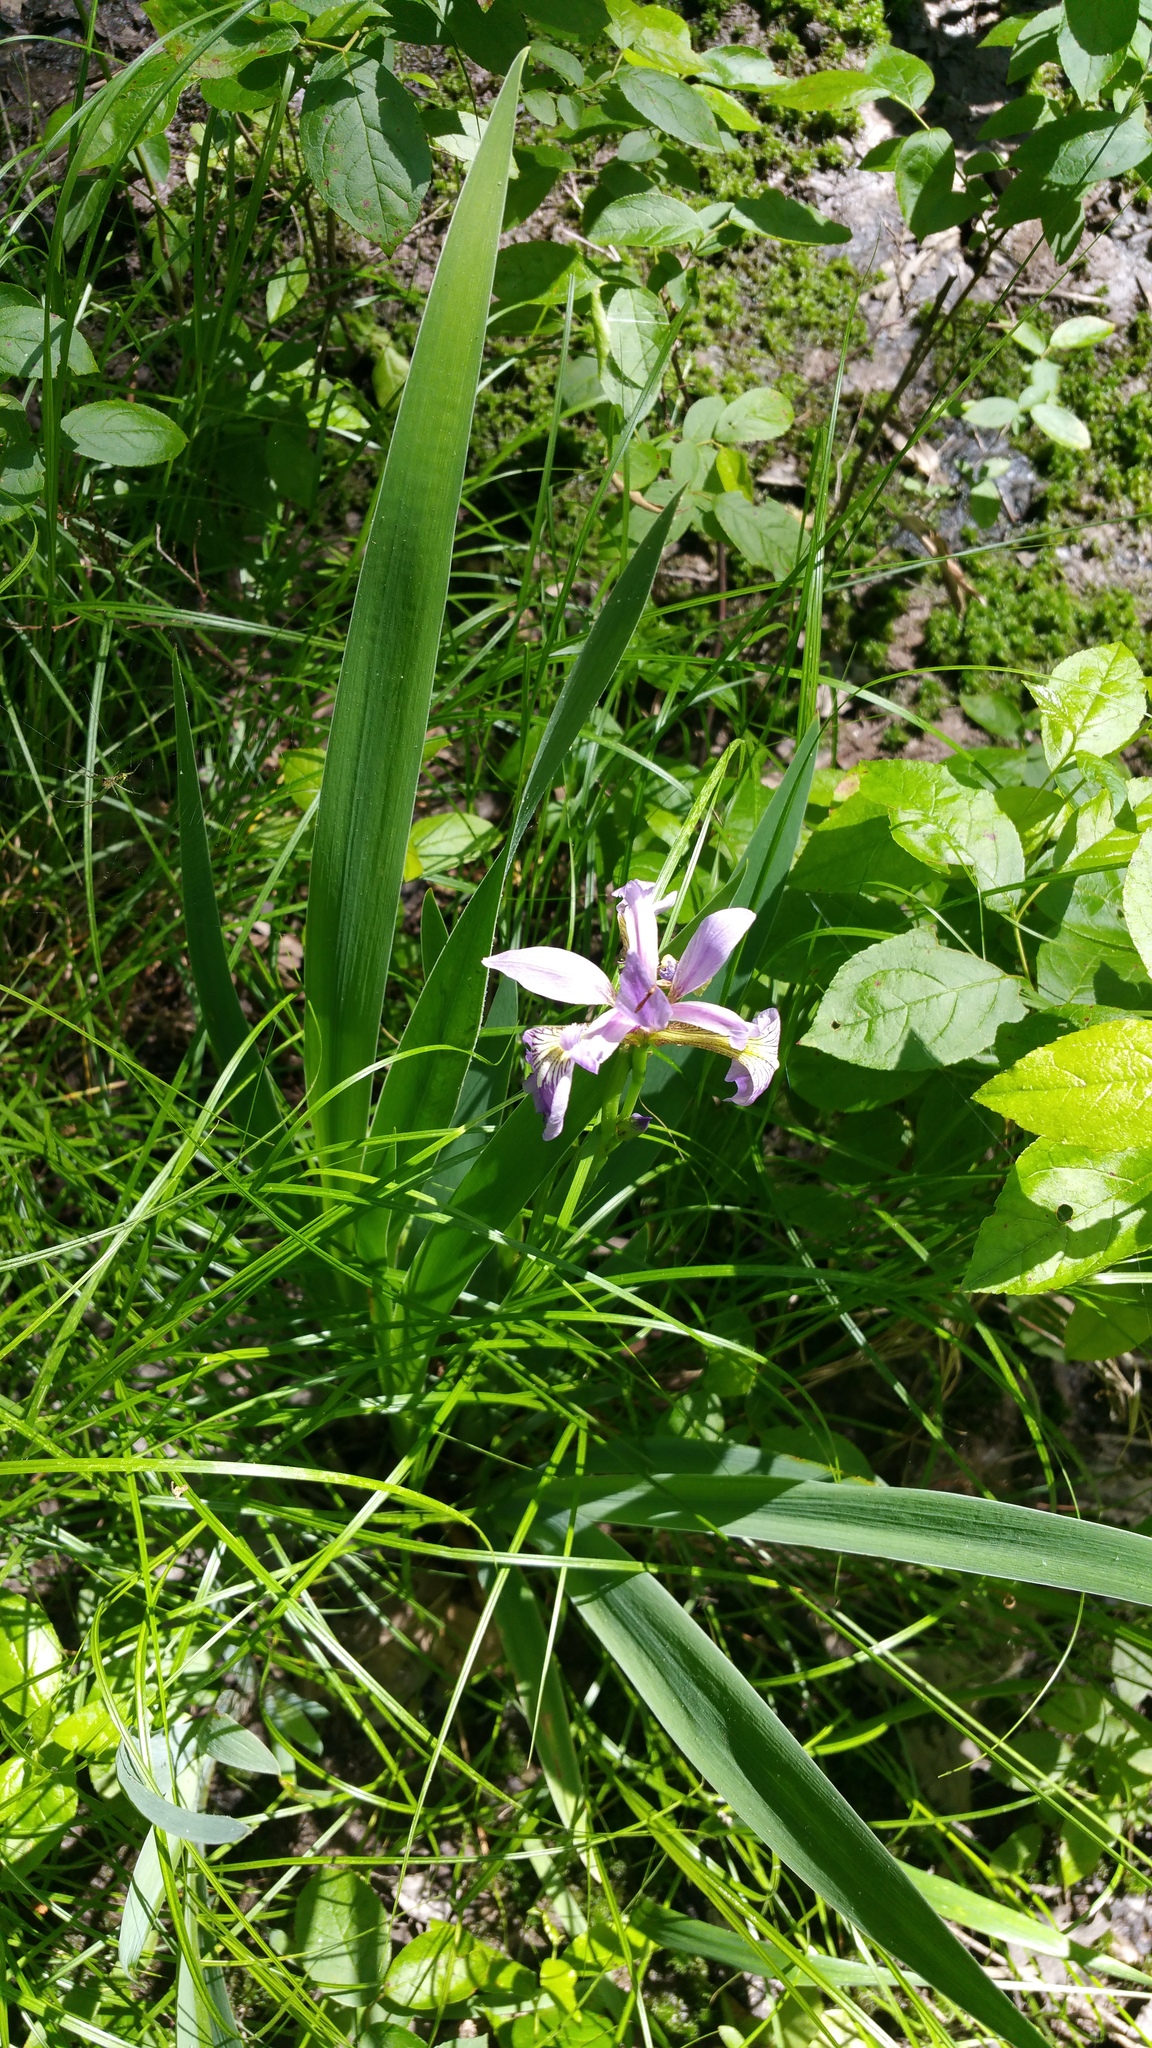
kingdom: Plantae
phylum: Tracheophyta
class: Liliopsida
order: Asparagales
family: Iridaceae
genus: Iris
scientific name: Iris versicolor
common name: Purple iris
